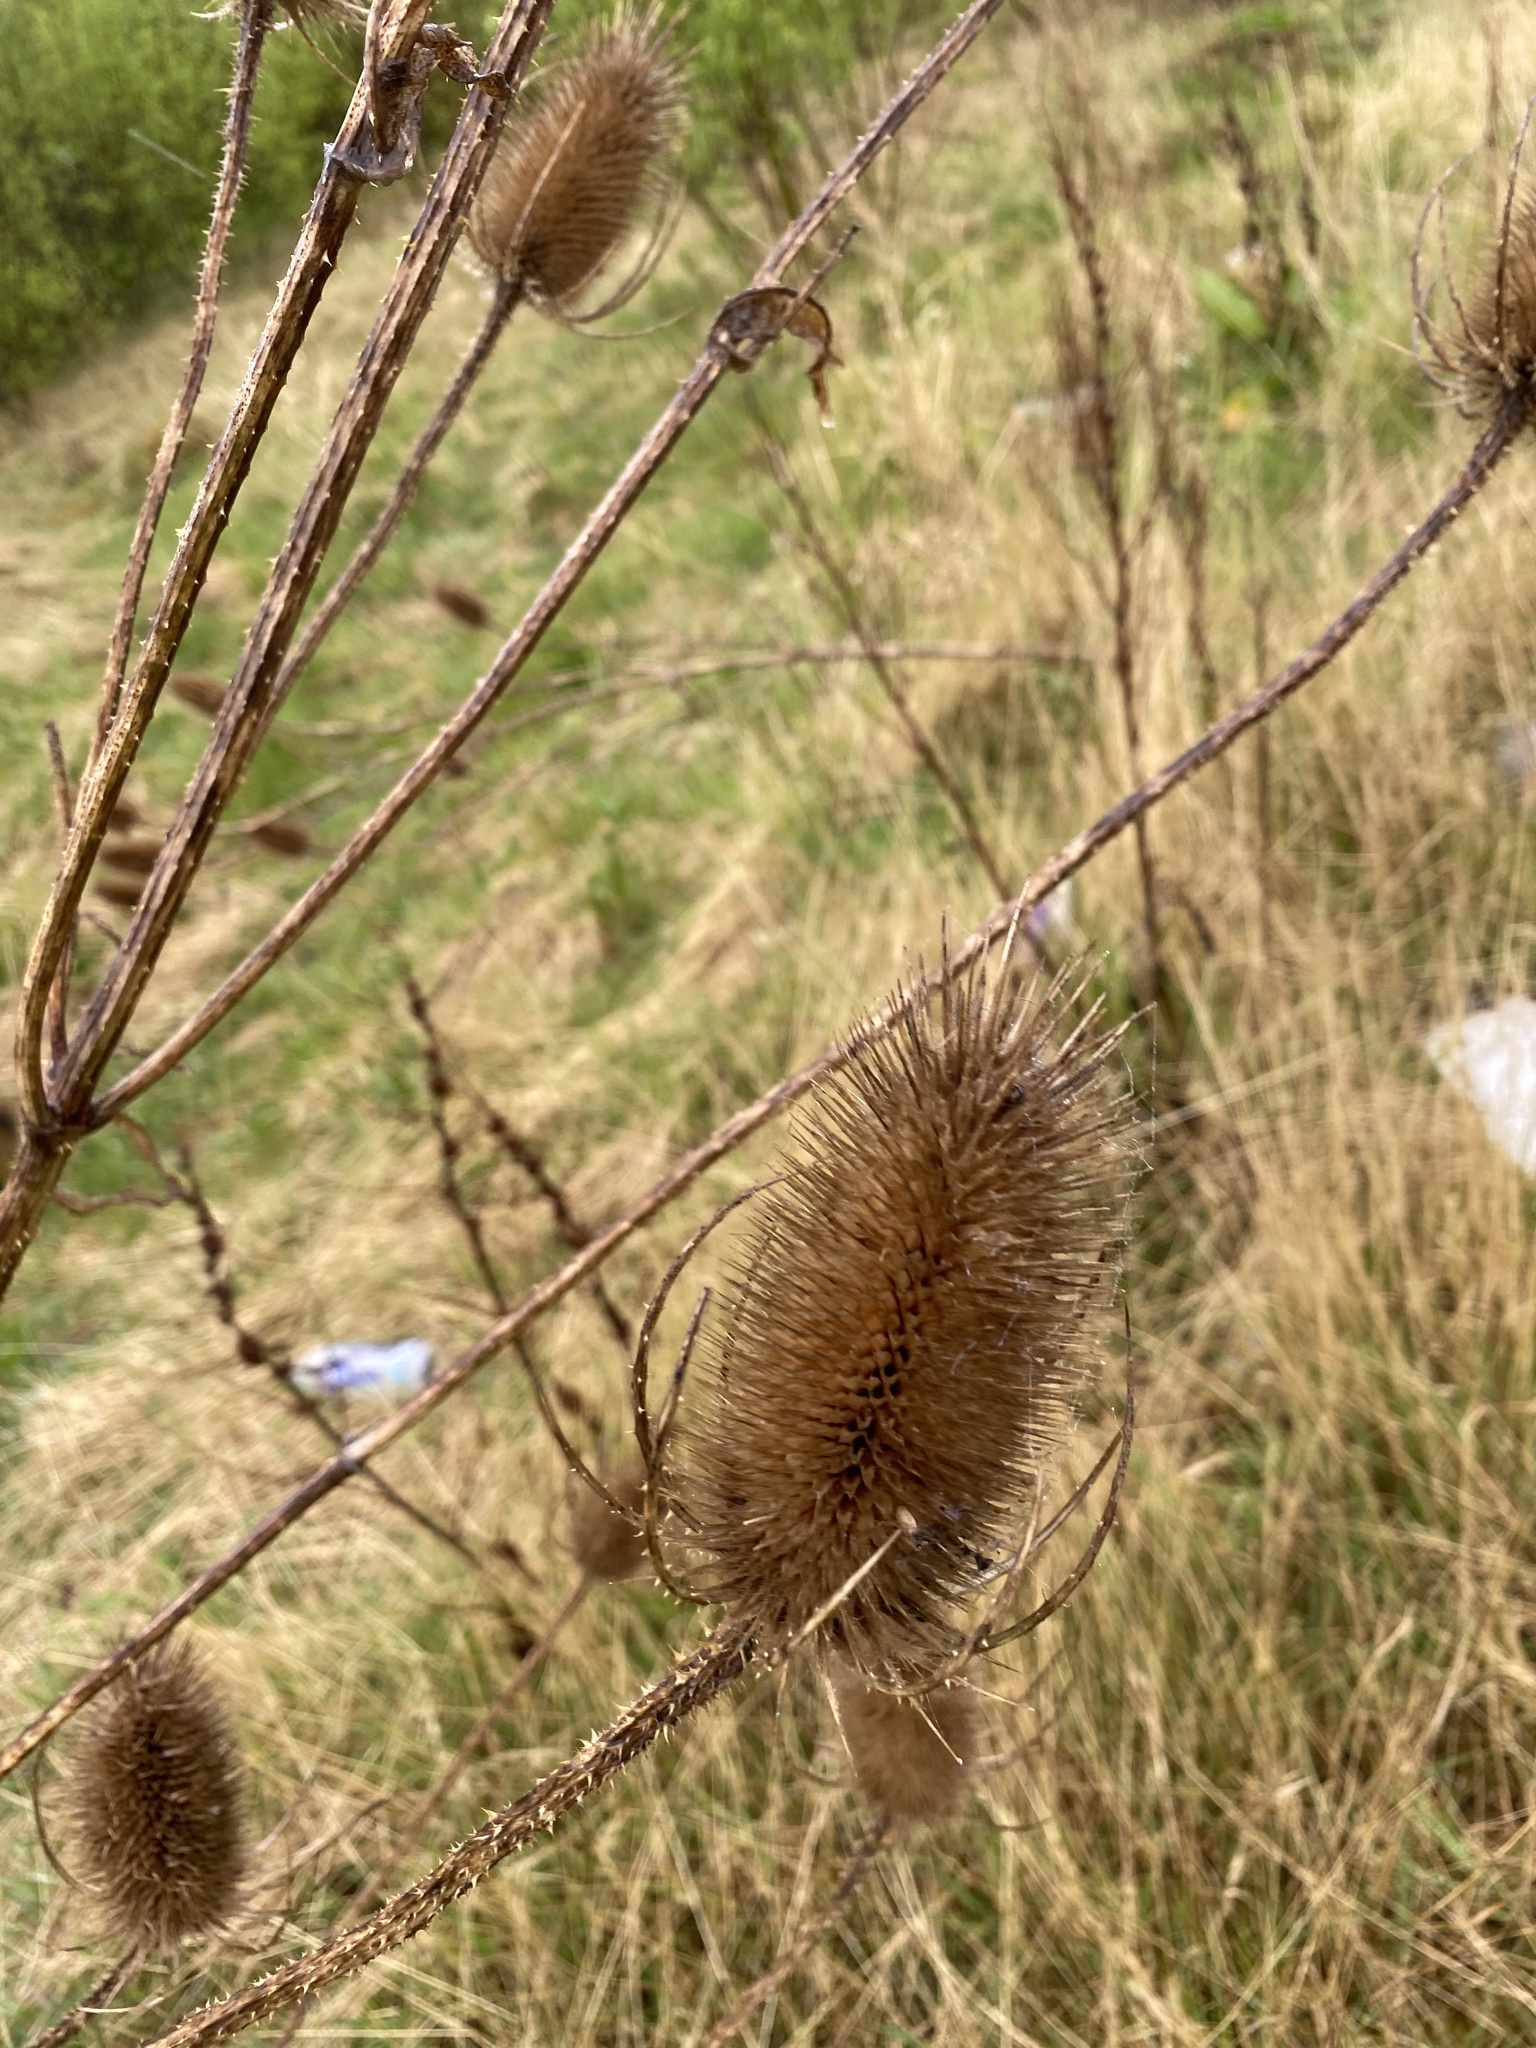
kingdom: Plantae
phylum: Tracheophyta
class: Magnoliopsida
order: Dipsacales
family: Caprifoliaceae
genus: Dipsacus
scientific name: Dipsacus fullonum
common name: Teasel
